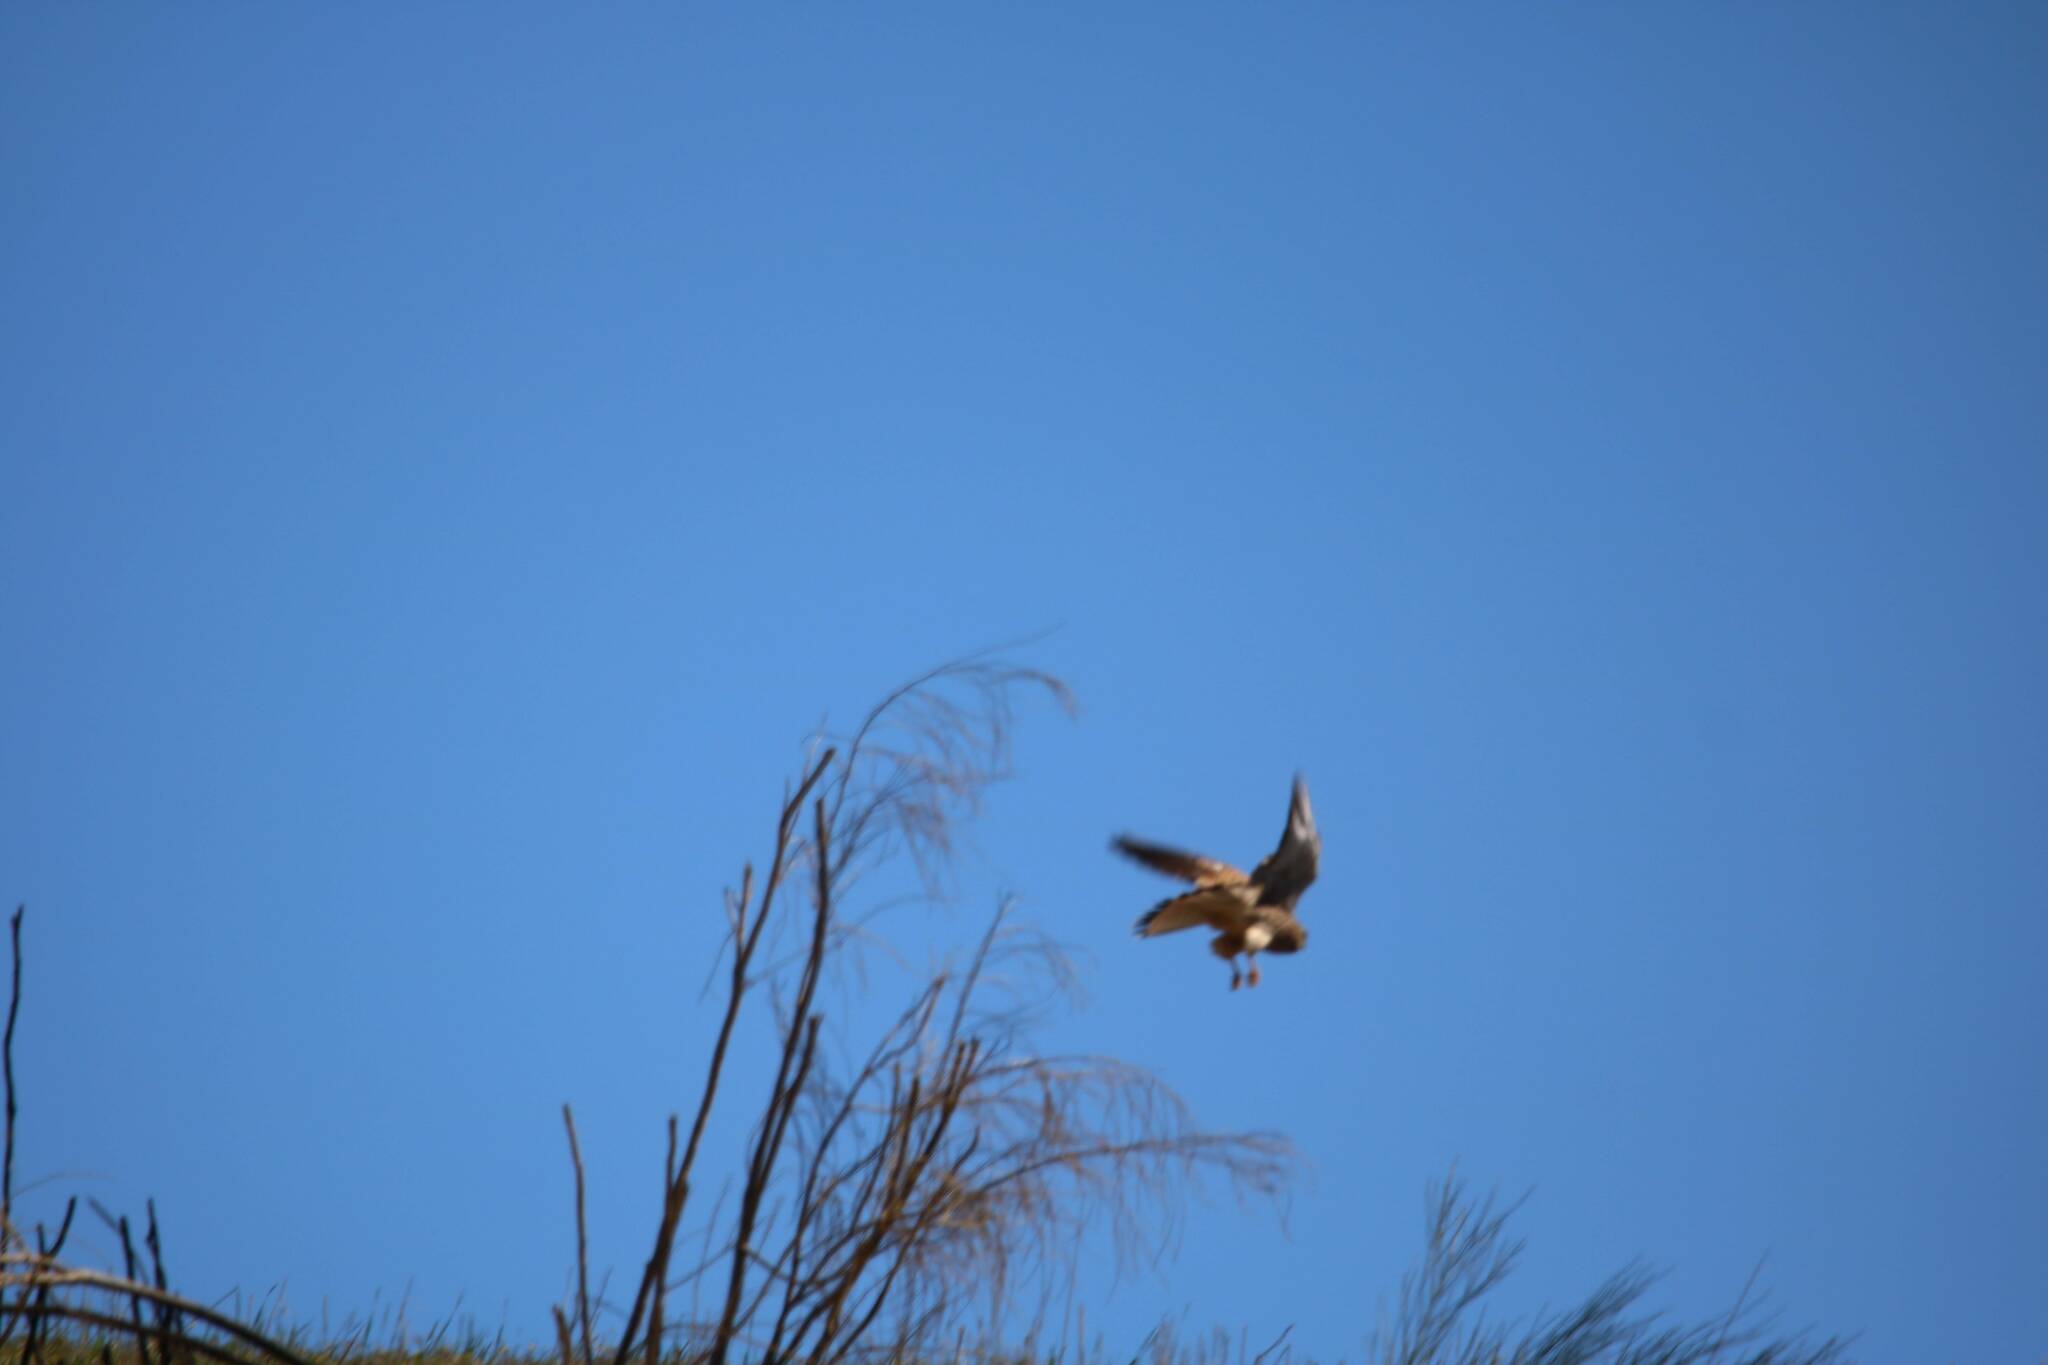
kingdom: Animalia
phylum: Chordata
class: Aves
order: Falconiformes
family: Falconidae
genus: Falco
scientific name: Falco tinnunculus
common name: Common kestrel
